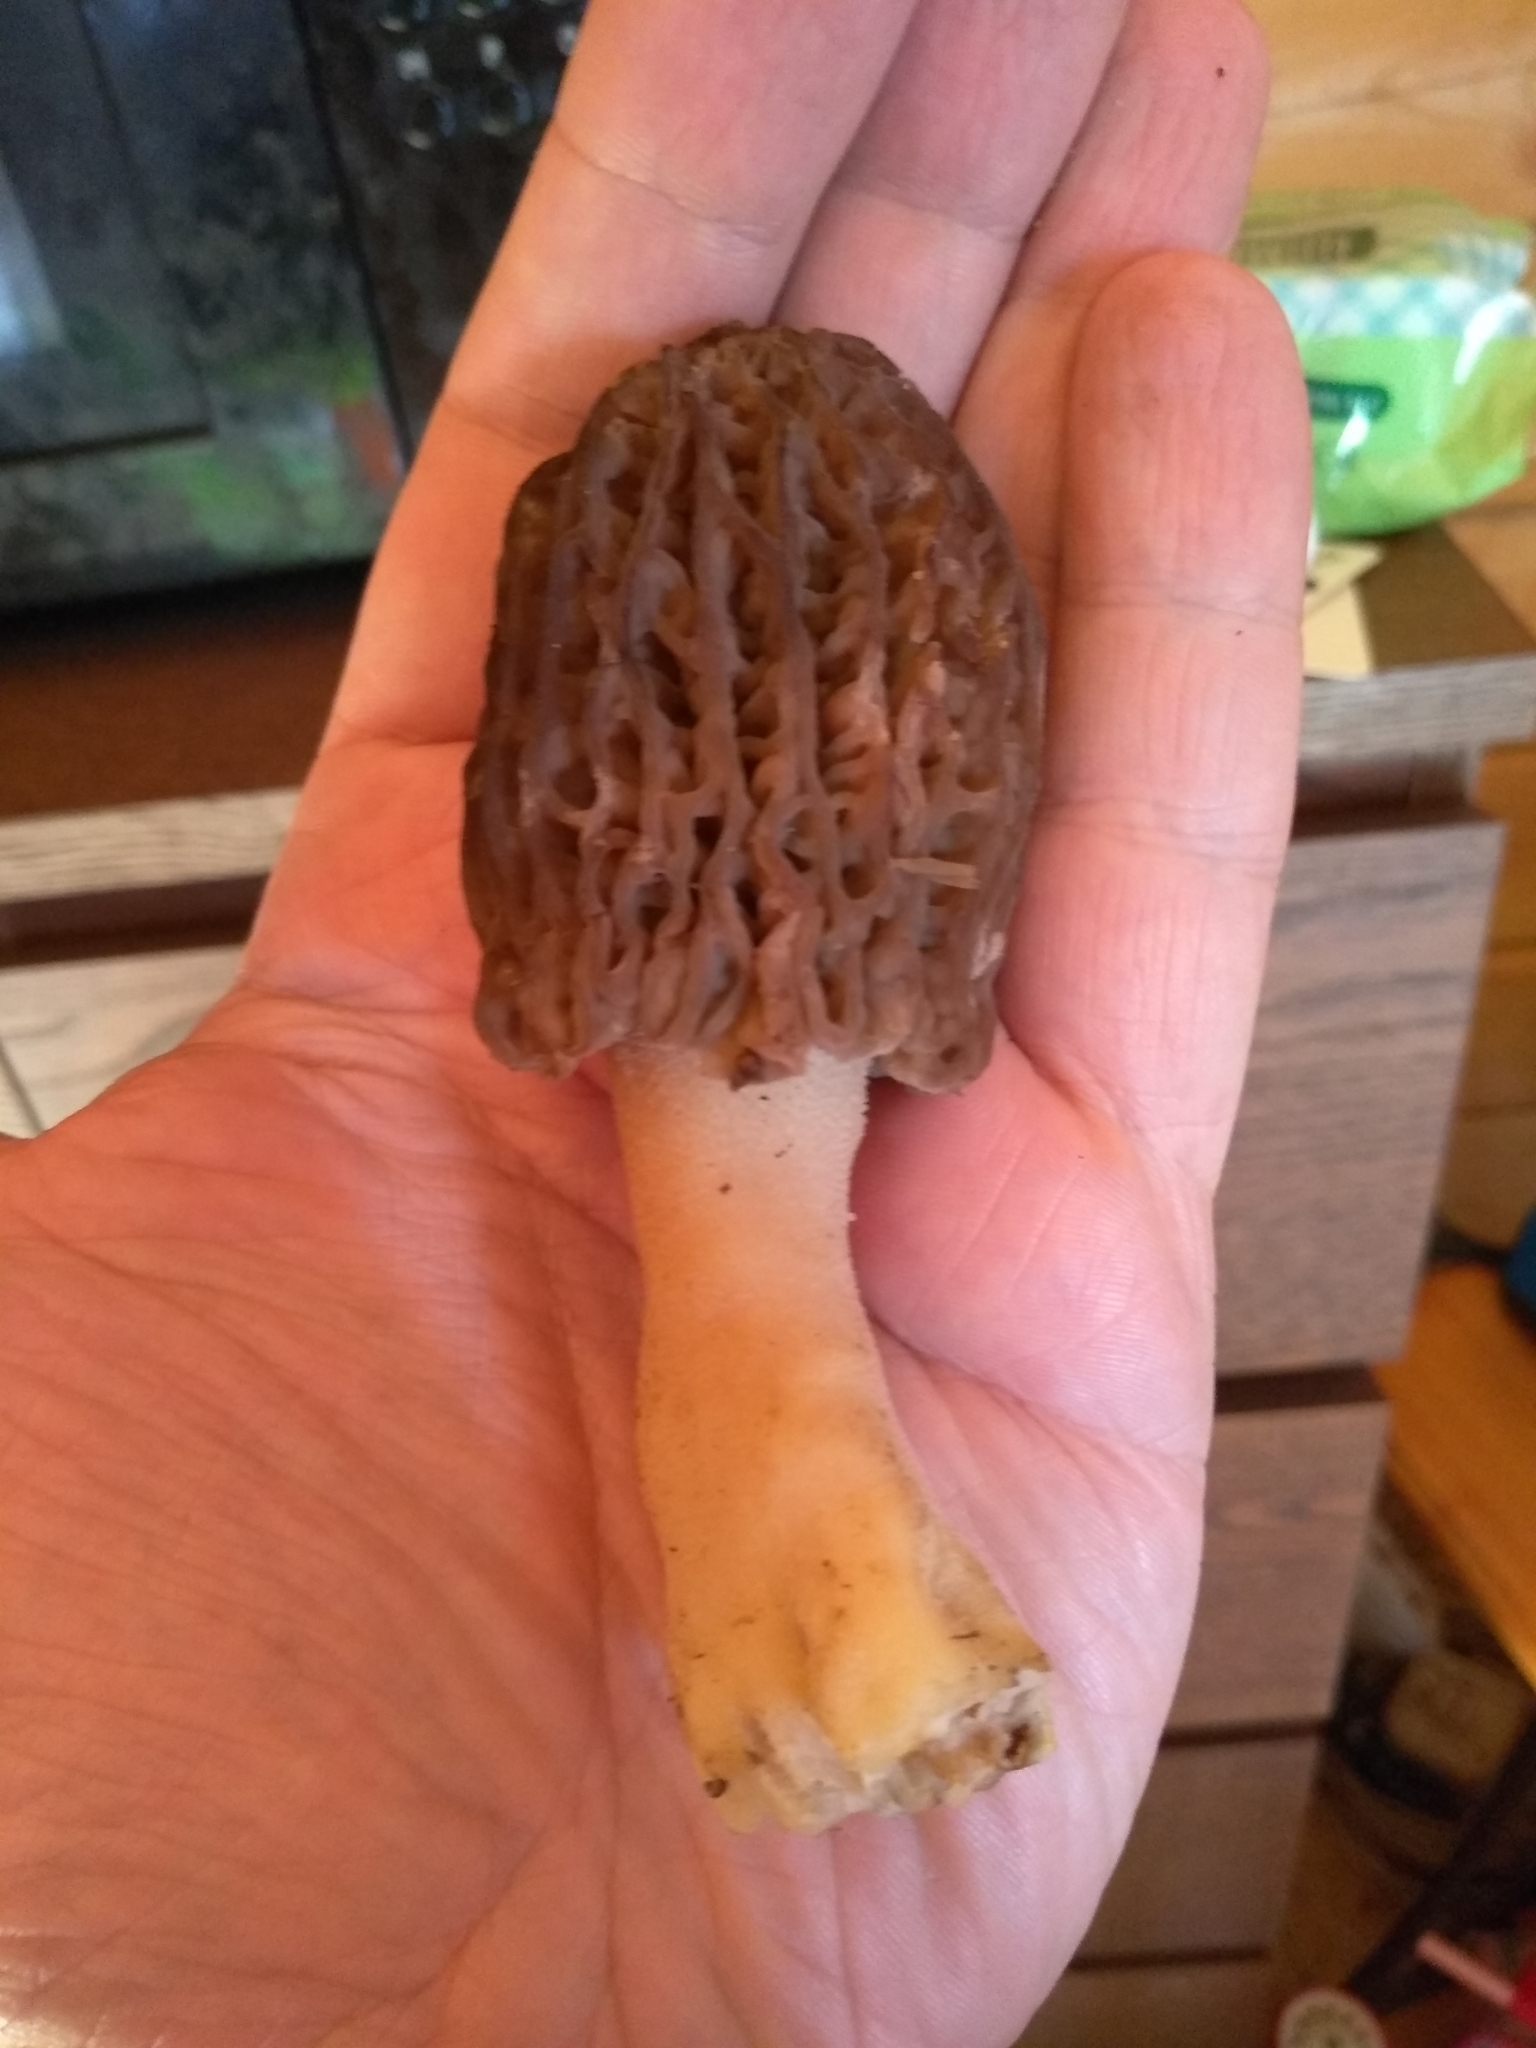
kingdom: Fungi
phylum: Ascomycota
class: Pezizomycetes
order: Pezizales
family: Morchellaceae
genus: Morchella
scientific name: Morchella
